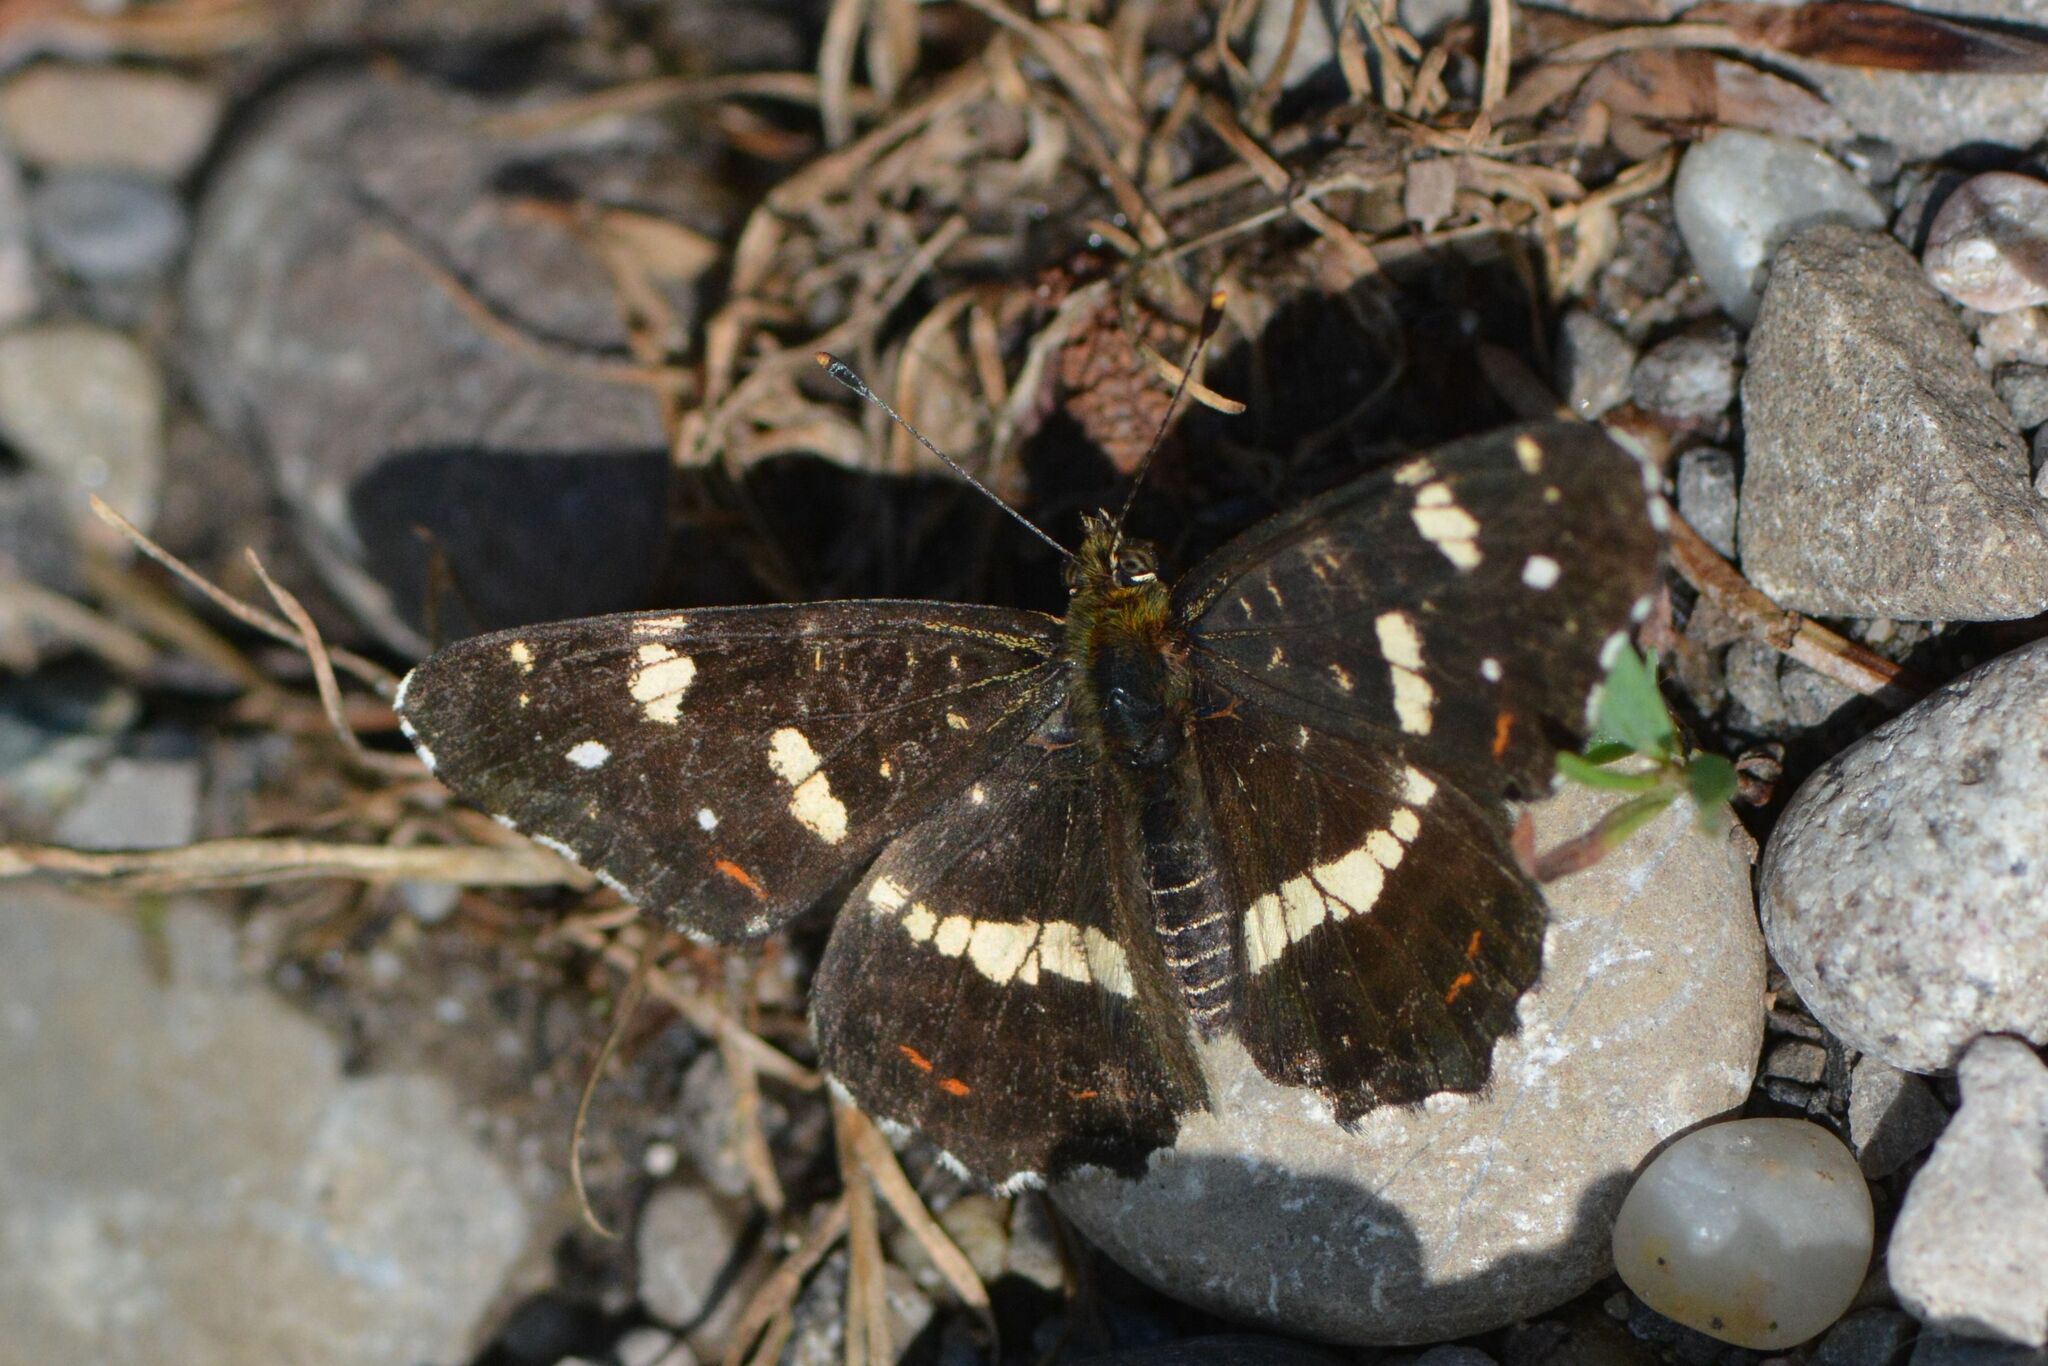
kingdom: Animalia
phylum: Arthropoda
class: Insecta
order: Lepidoptera
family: Nymphalidae
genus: Araschnia
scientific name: Araschnia levana
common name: Map butterfly
